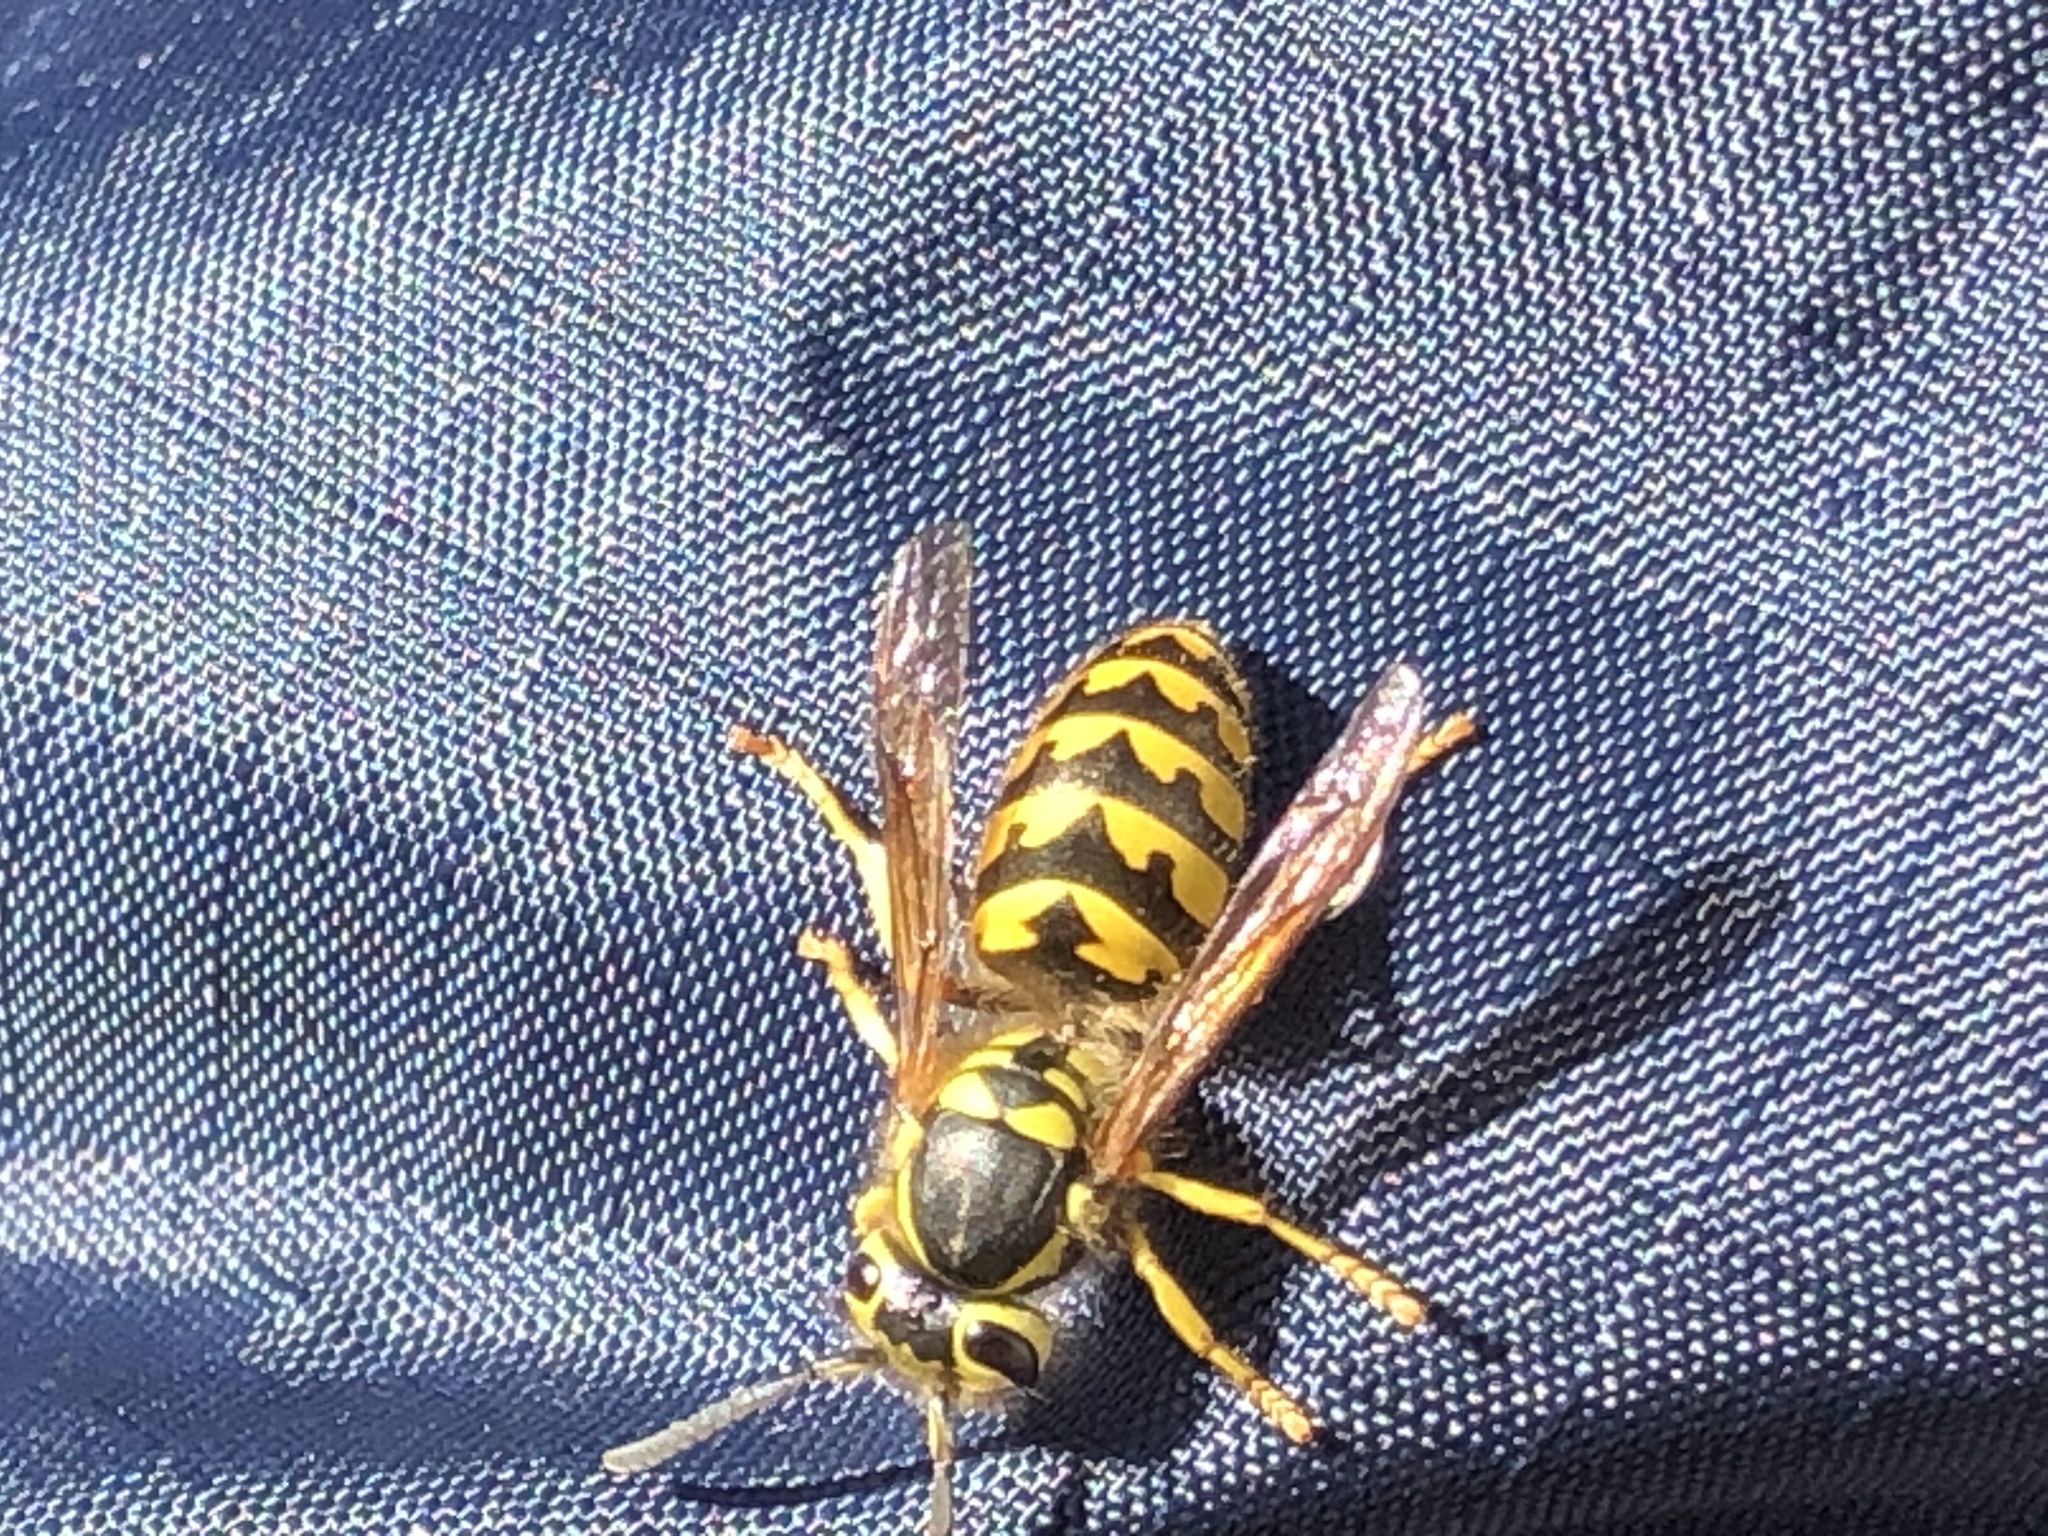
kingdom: Animalia
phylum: Arthropoda
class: Insecta
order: Hymenoptera
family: Vespidae
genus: Vespula
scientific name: Vespula pensylvanica
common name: Western yellowjacket
